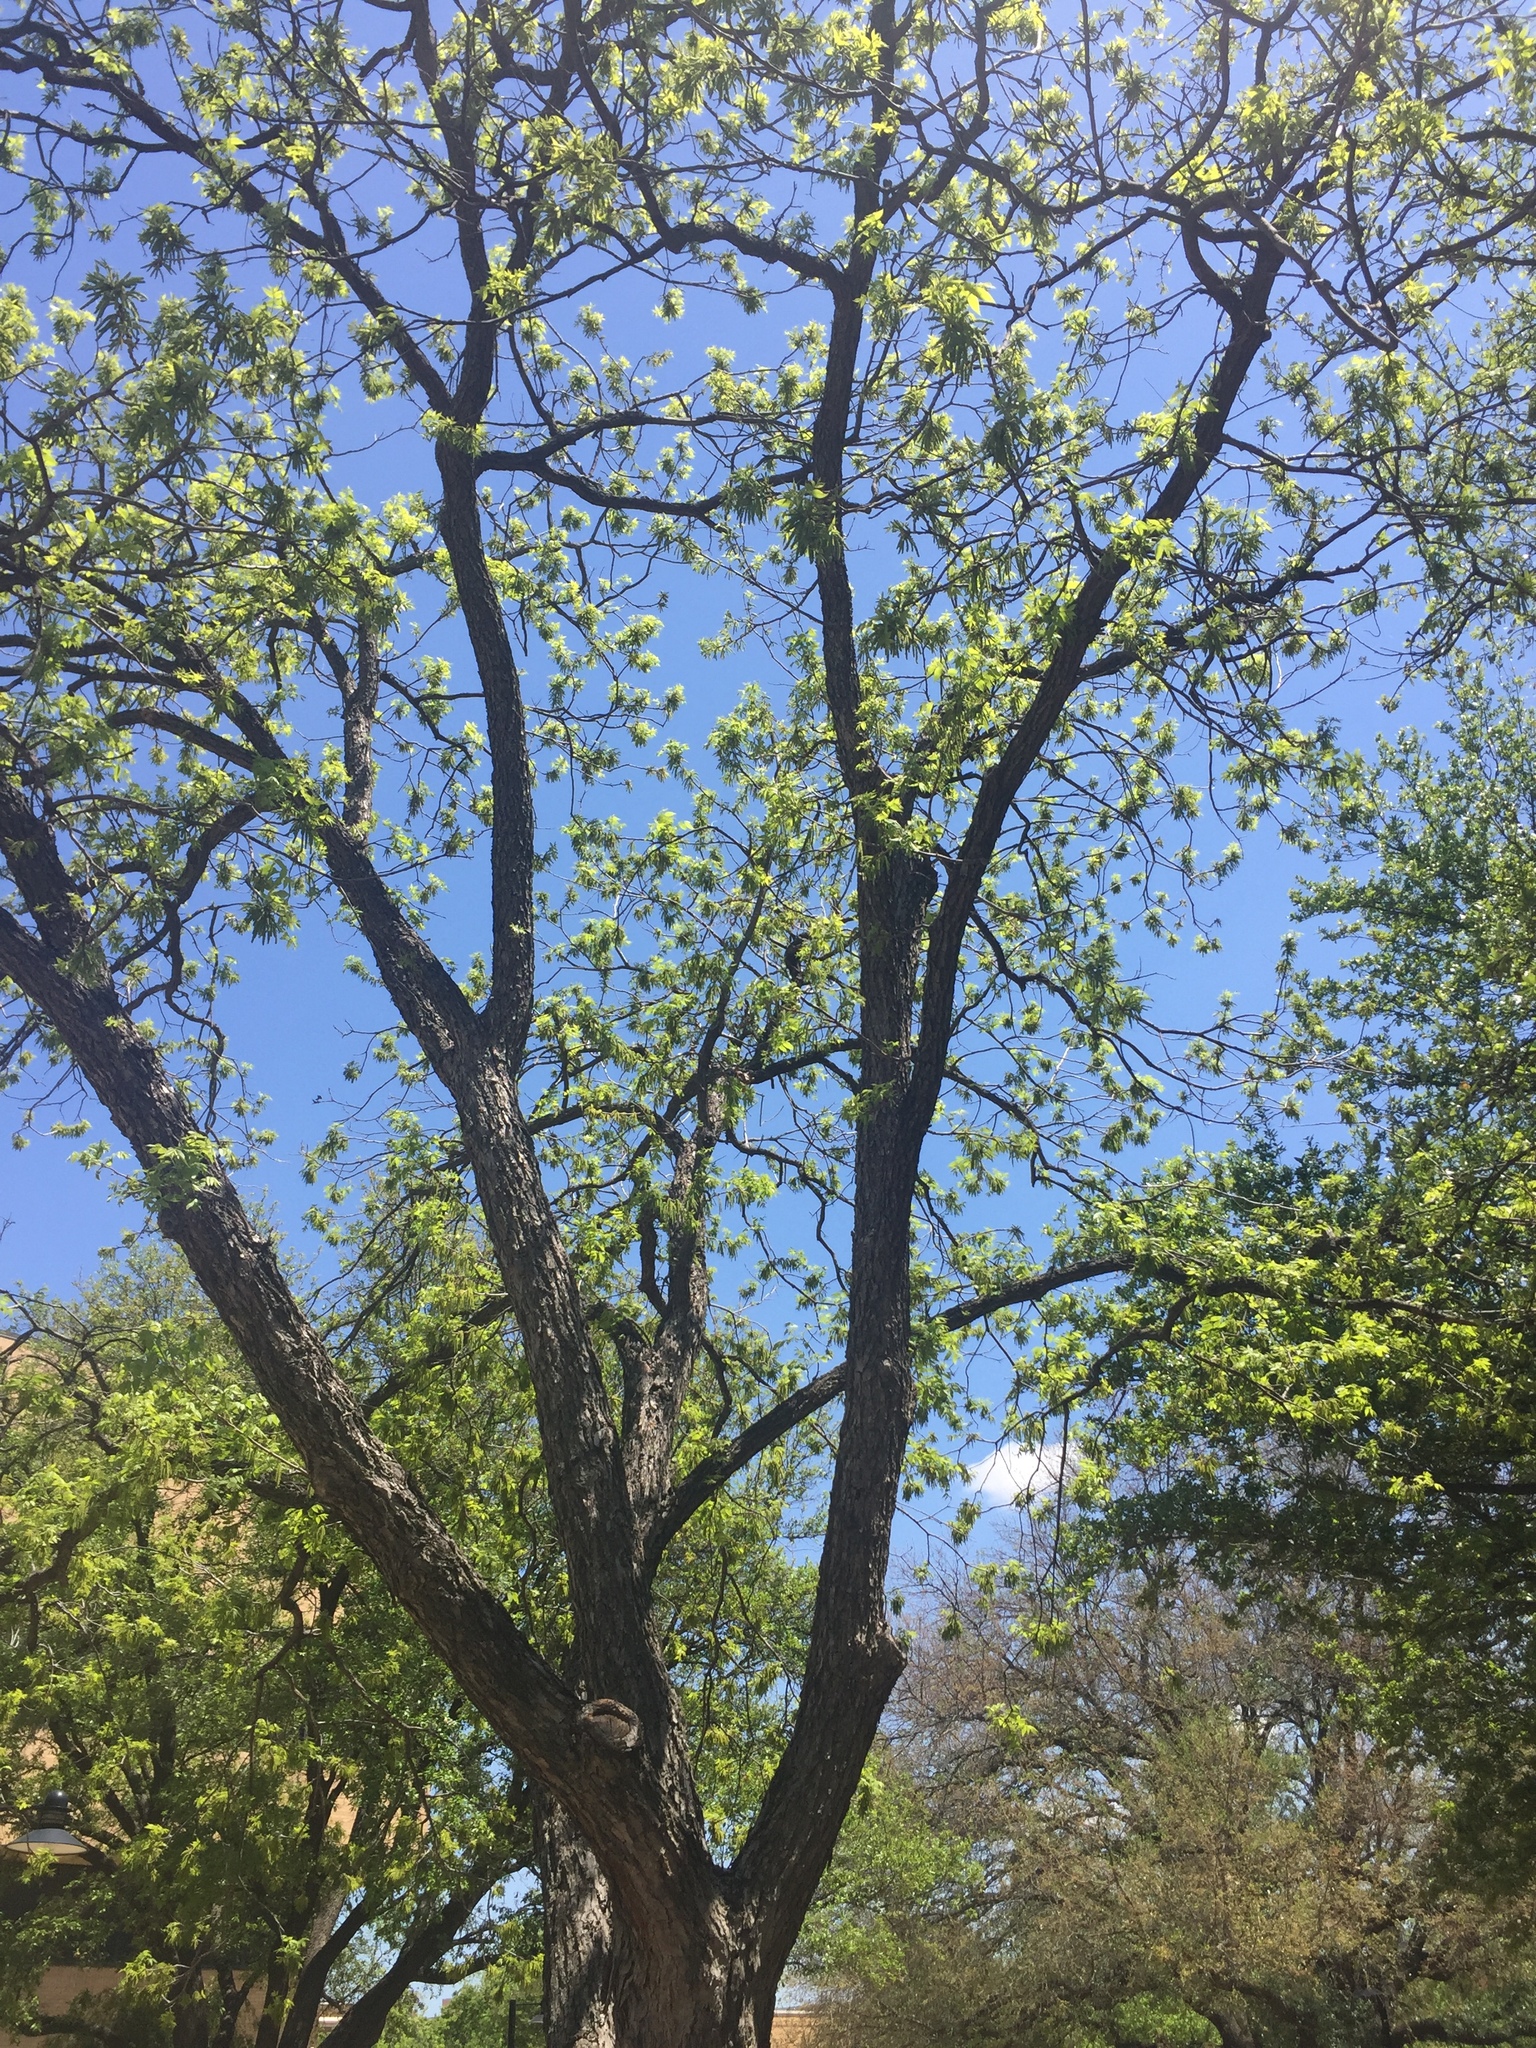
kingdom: Plantae
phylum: Tracheophyta
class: Magnoliopsida
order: Fagales
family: Juglandaceae
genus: Carya
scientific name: Carya illinoinensis
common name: Pecan
